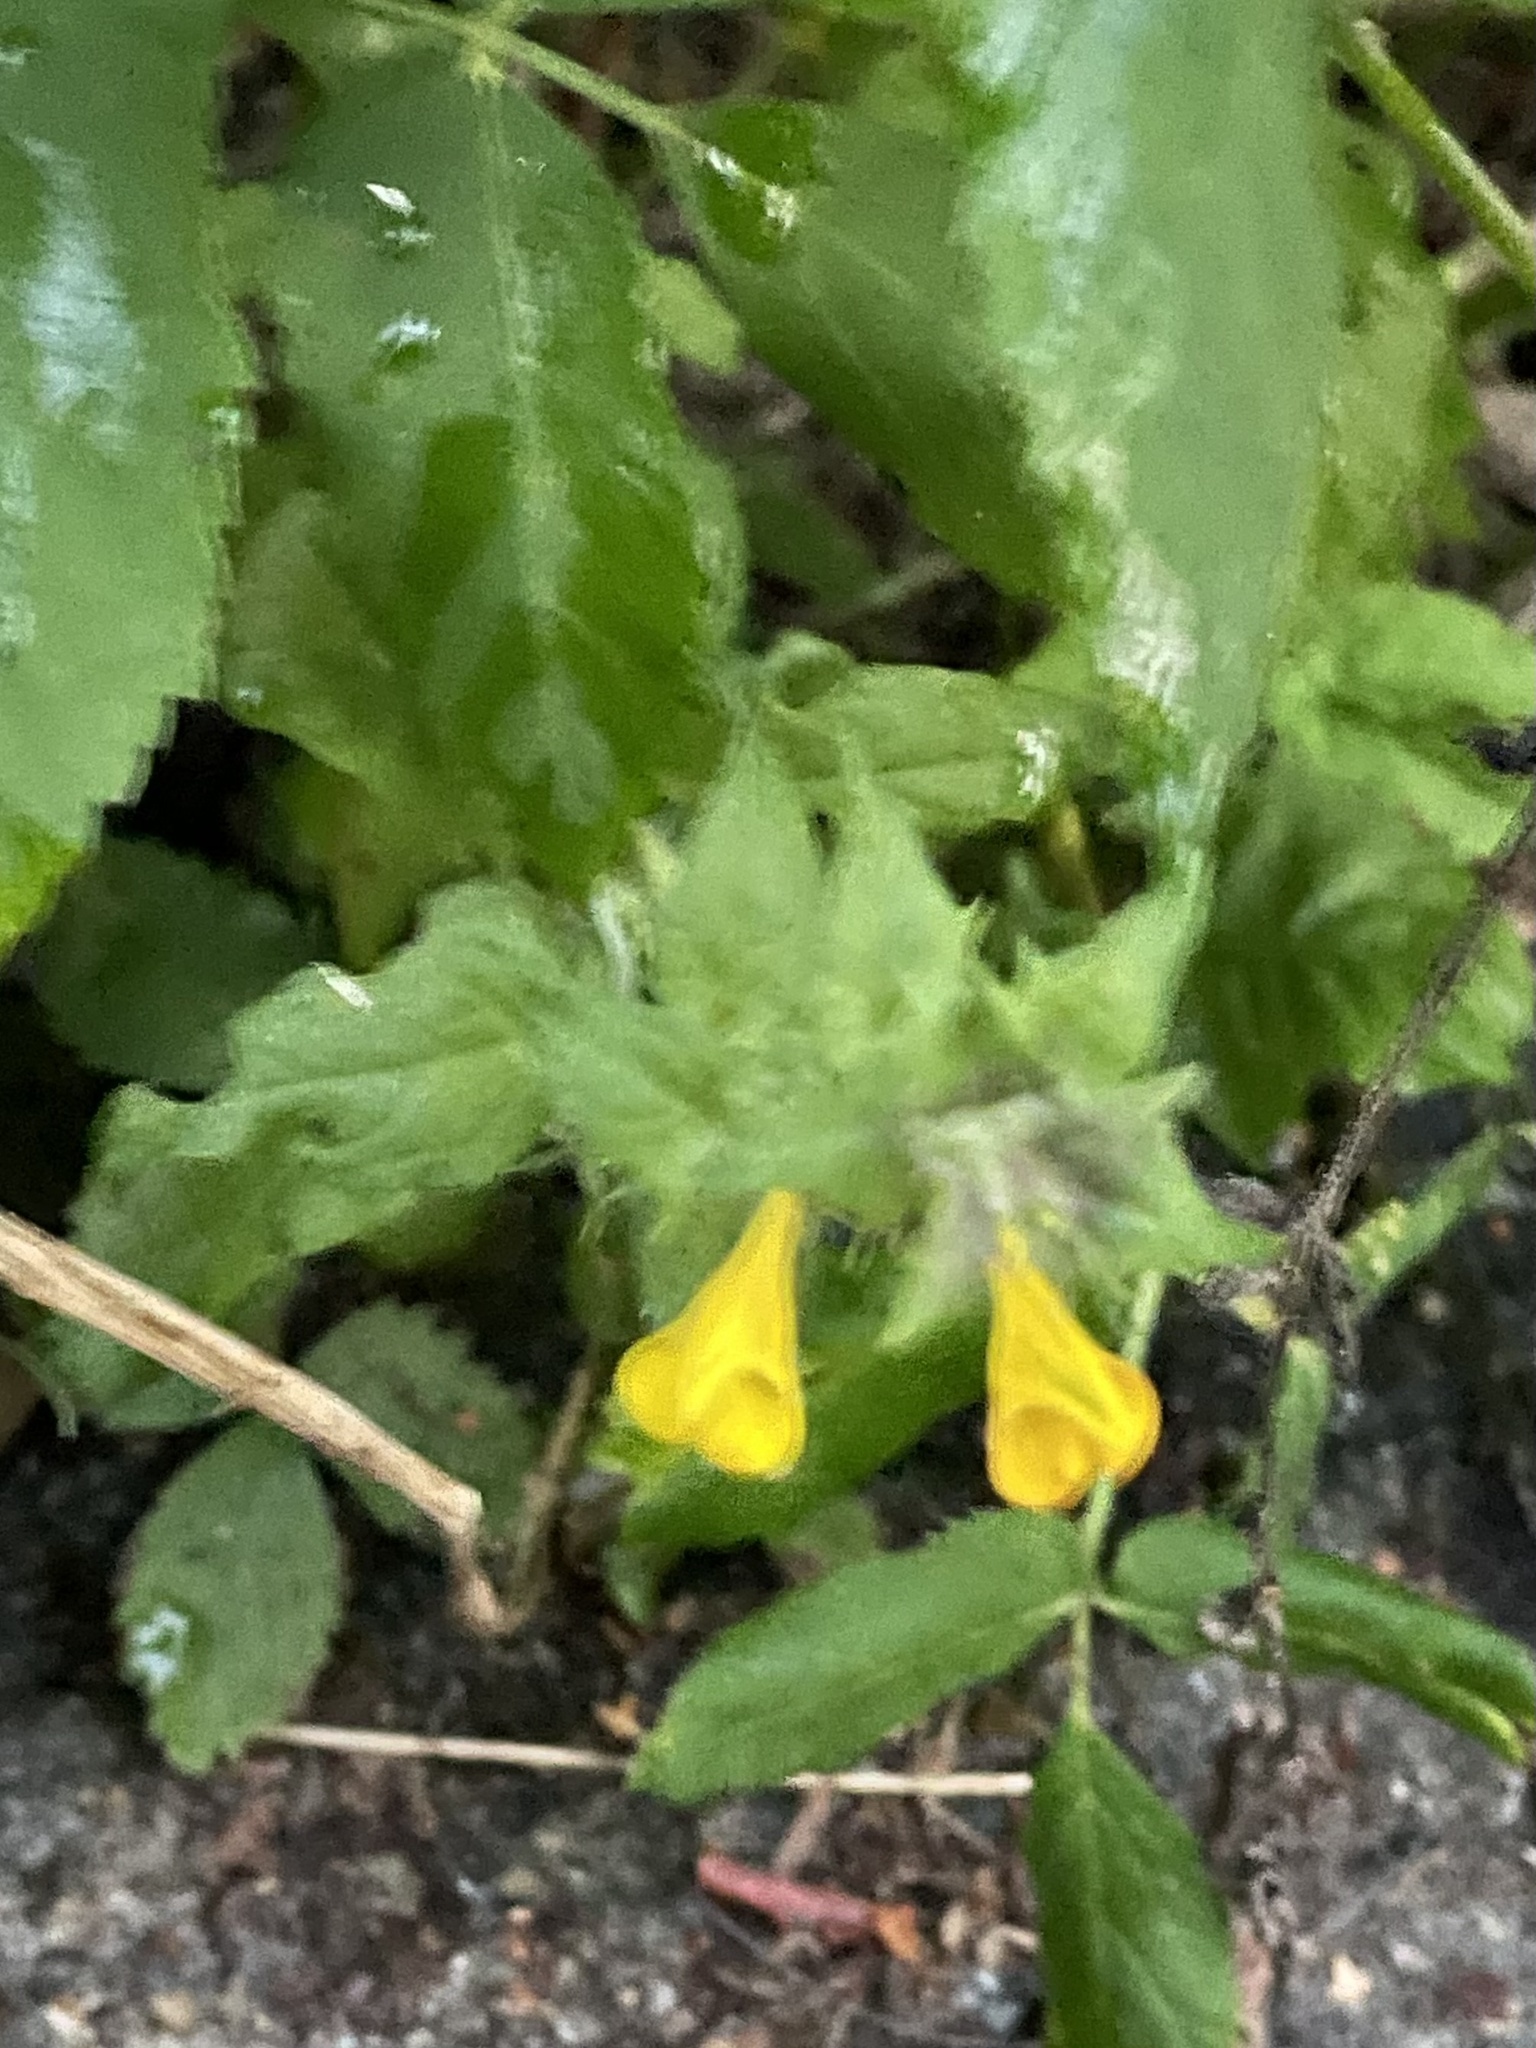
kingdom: Plantae
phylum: Tracheophyta
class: Magnoliopsida
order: Lamiales
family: Orobanchaceae
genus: Melampyrum
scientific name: Melampyrum nemorosum
